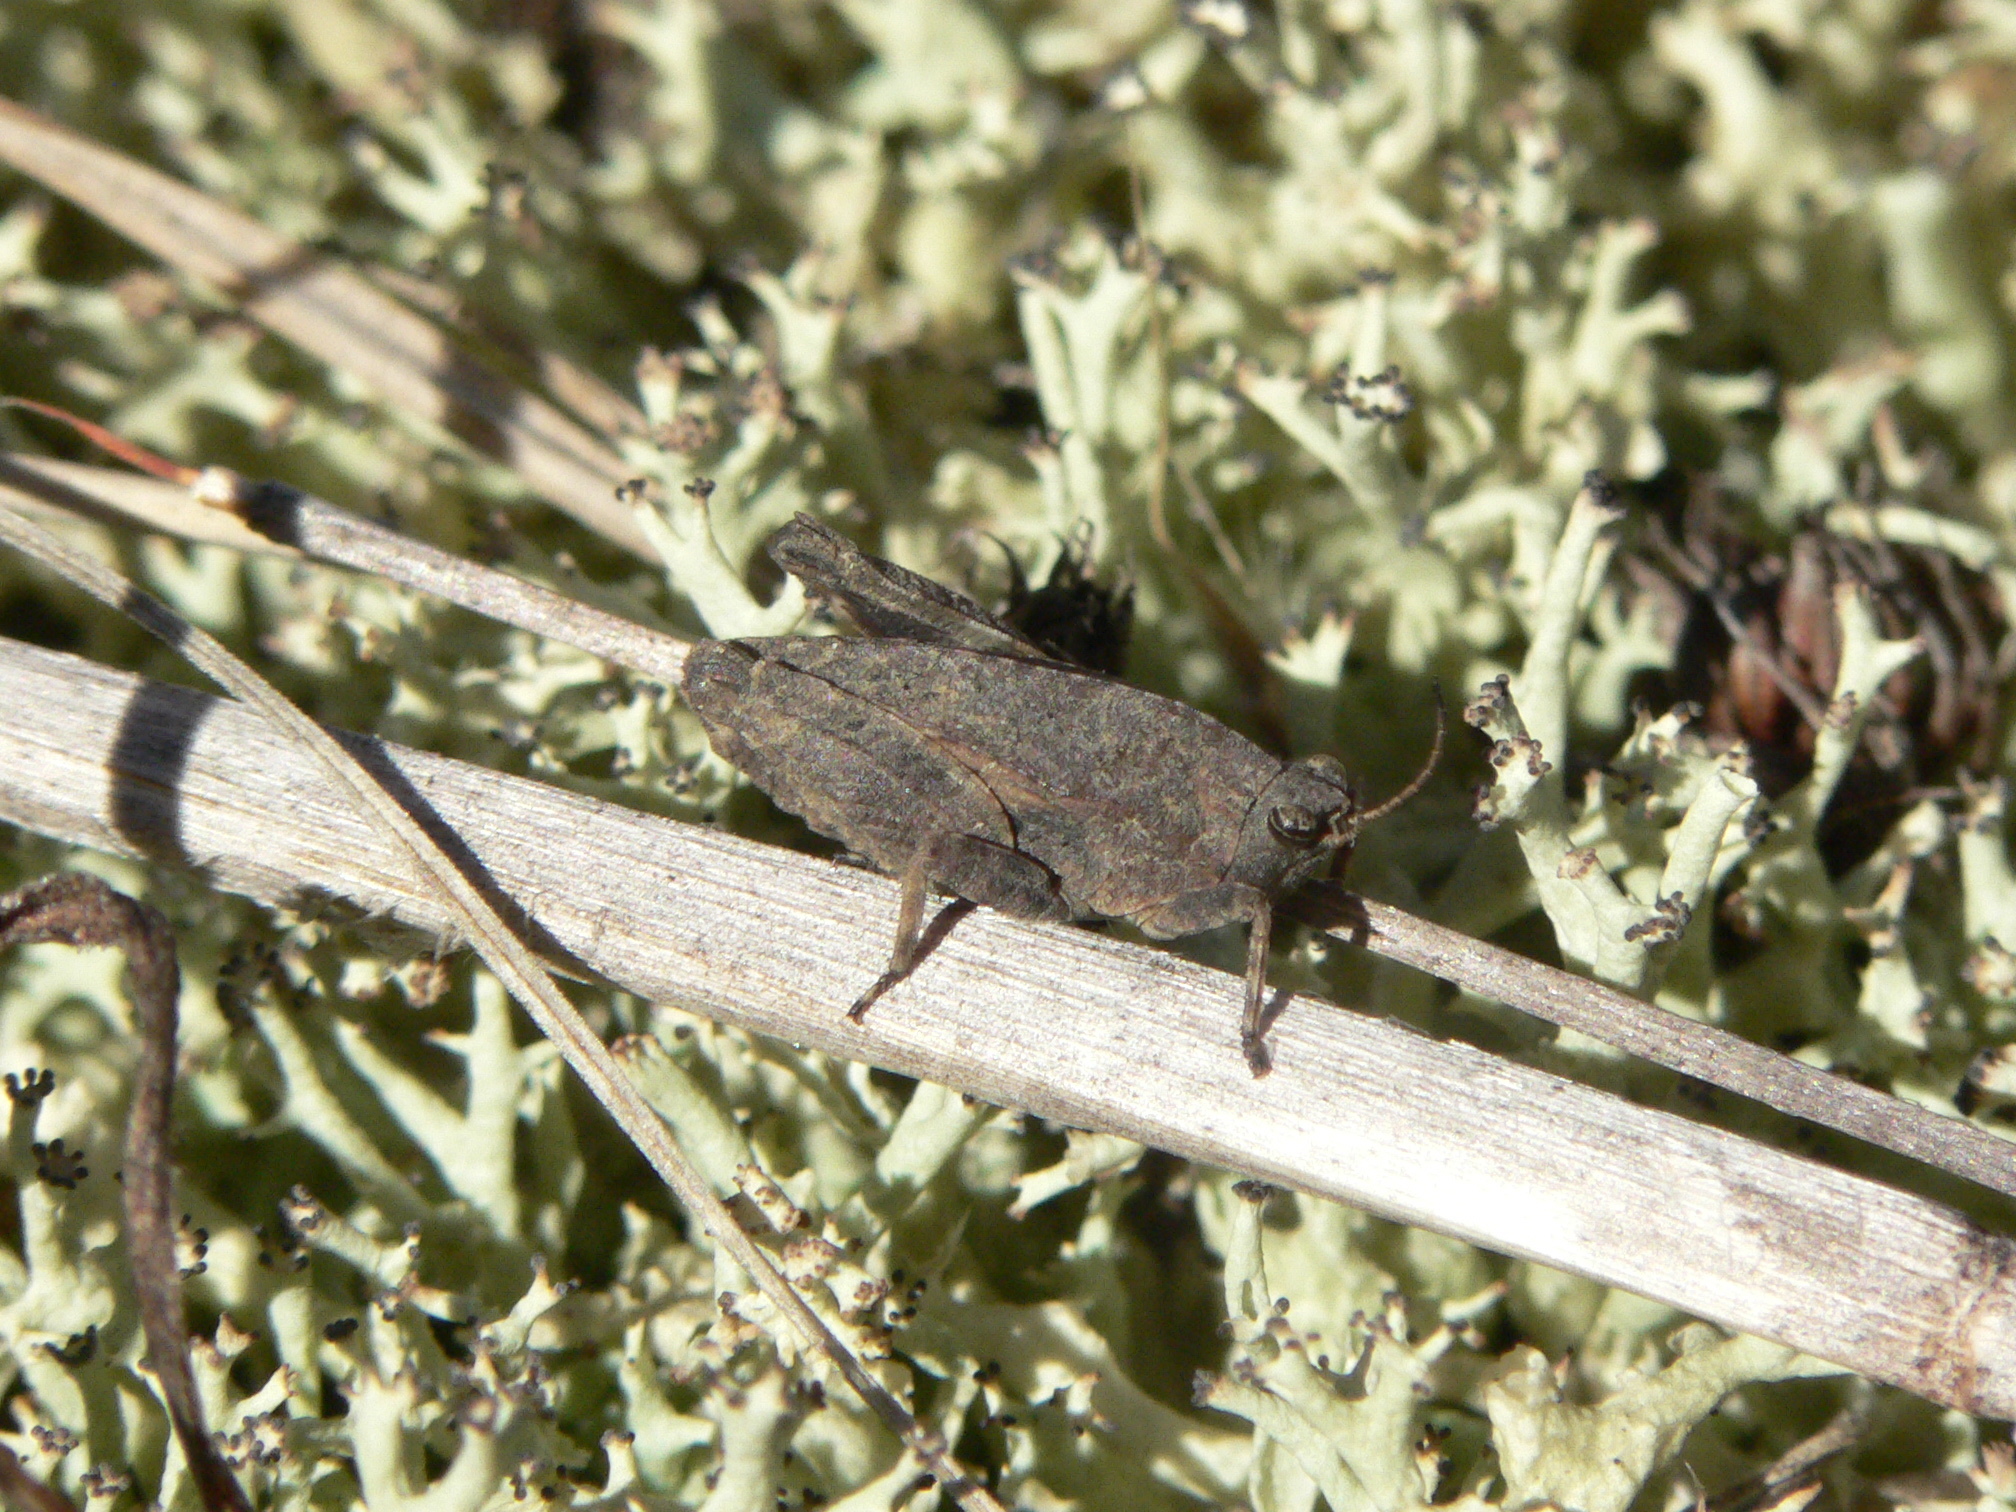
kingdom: Animalia
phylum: Arthropoda
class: Insecta
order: Orthoptera
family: Tetrigidae
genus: Nomotettix
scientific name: Nomotettix cristatus
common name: Crested grouse locust
